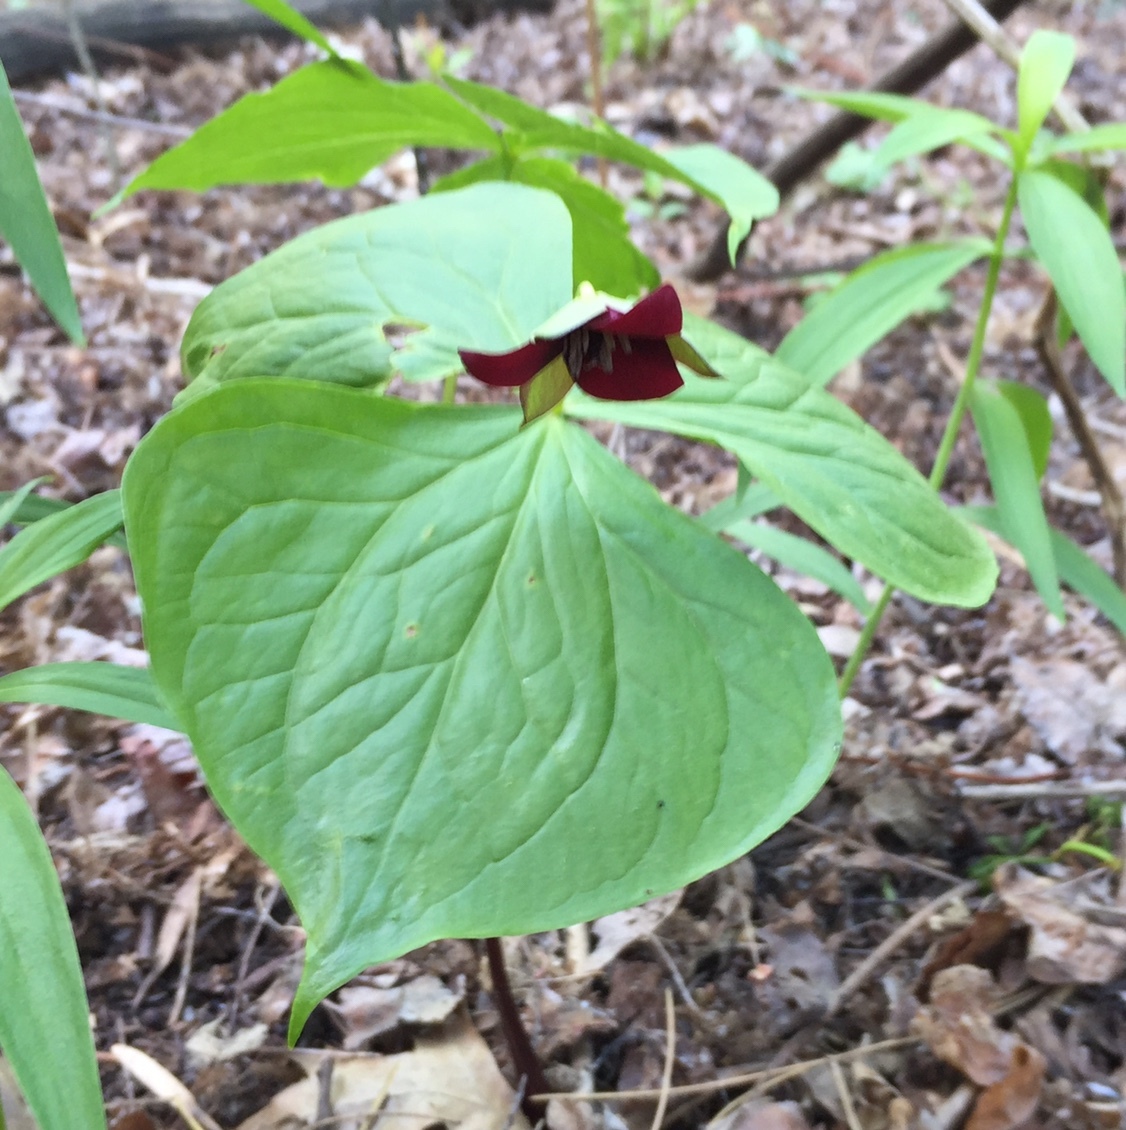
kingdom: Plantae
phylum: Tracheophyta
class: Liliopsida
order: Liliales
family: Melanthiaceae
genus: Trillium
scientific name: Trillium erectum
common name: Purple trillium
